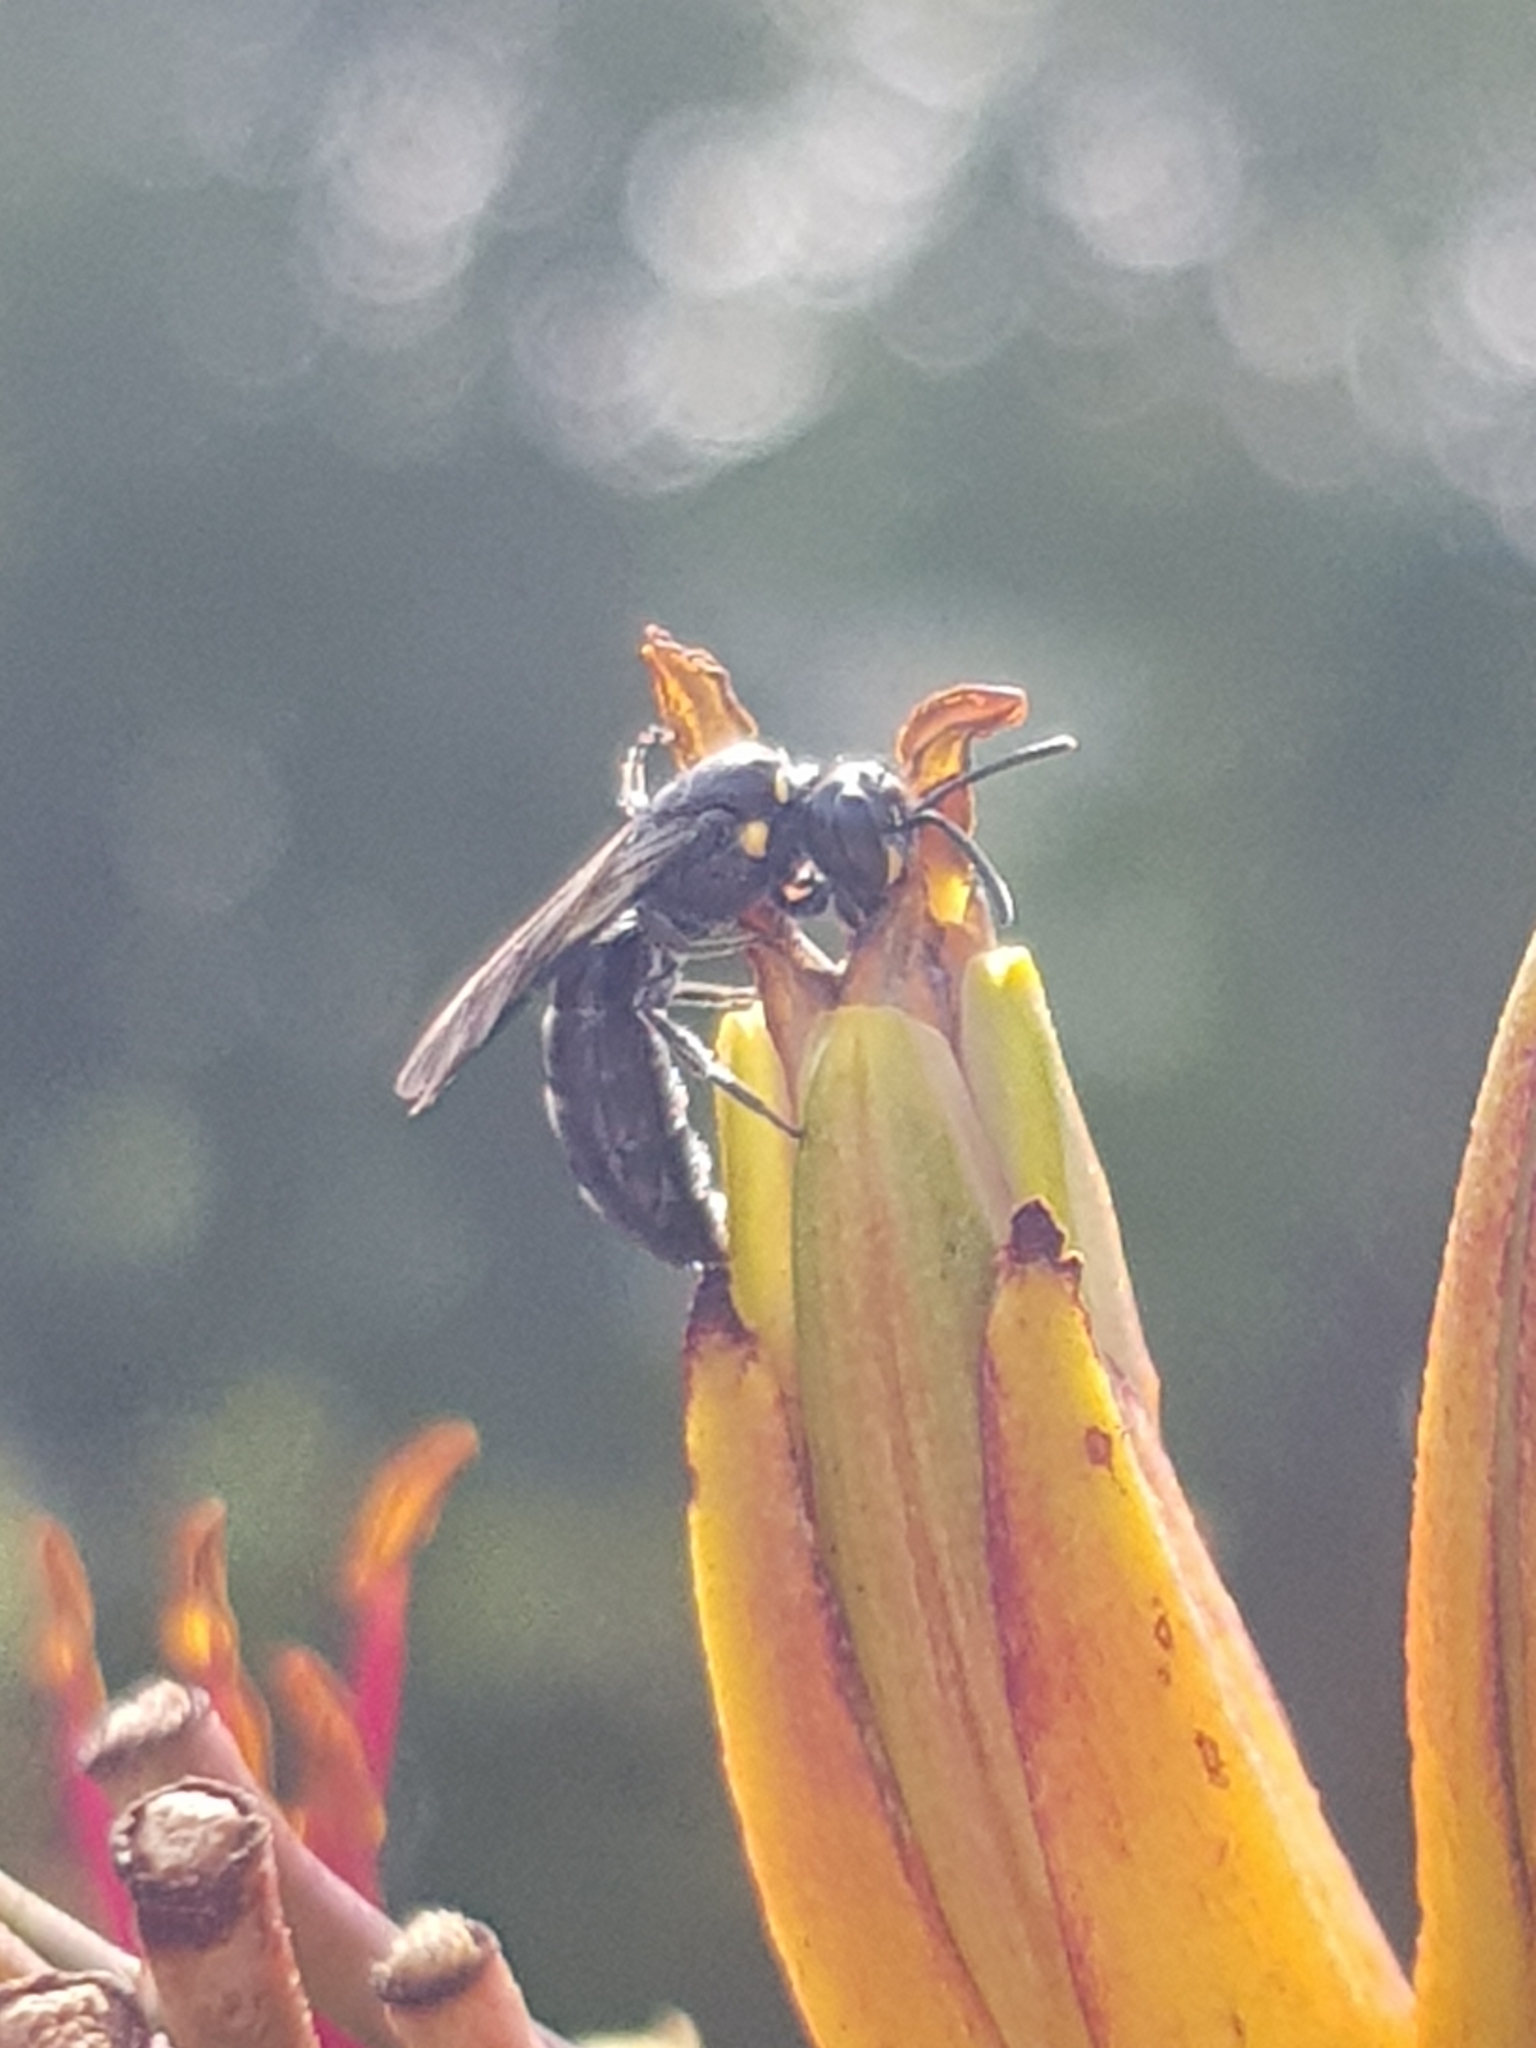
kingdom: Animalia
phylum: Arthropoda
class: Insecta
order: Hymenoptera
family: Colletidae
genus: Hylaeus
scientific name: Hylaeus relegatus
